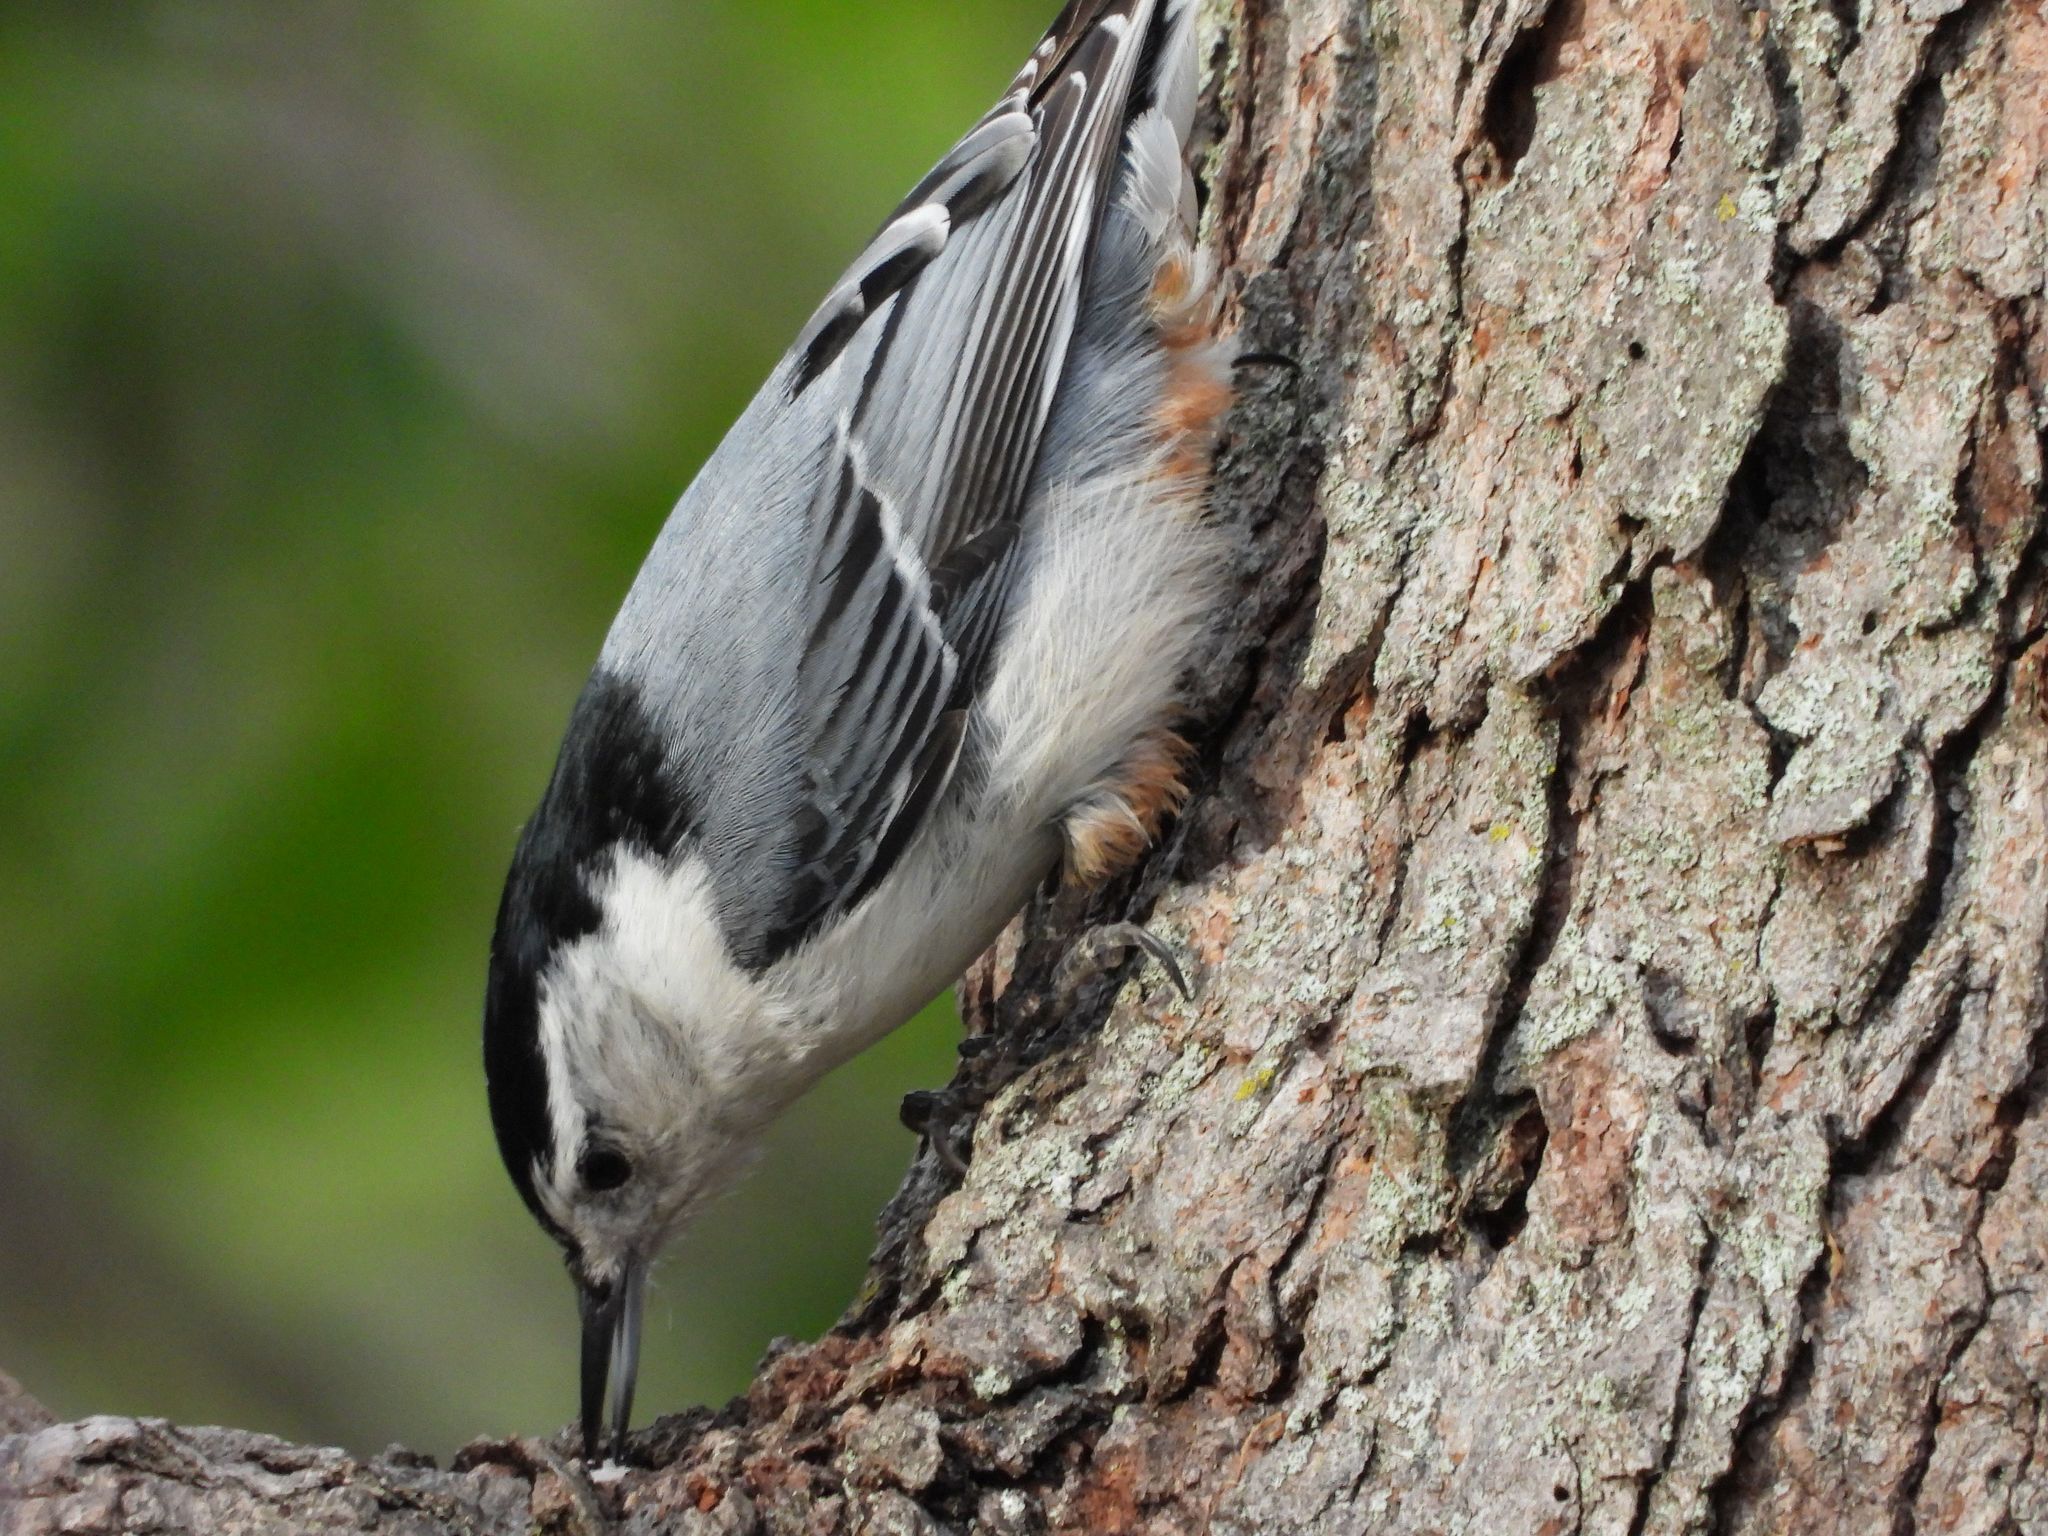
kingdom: Animalia
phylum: Chordata
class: Aves
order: Passeriformes
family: Sittidae
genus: Sitta
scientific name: Sitta carolinensis
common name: White-breasted nuthatch
